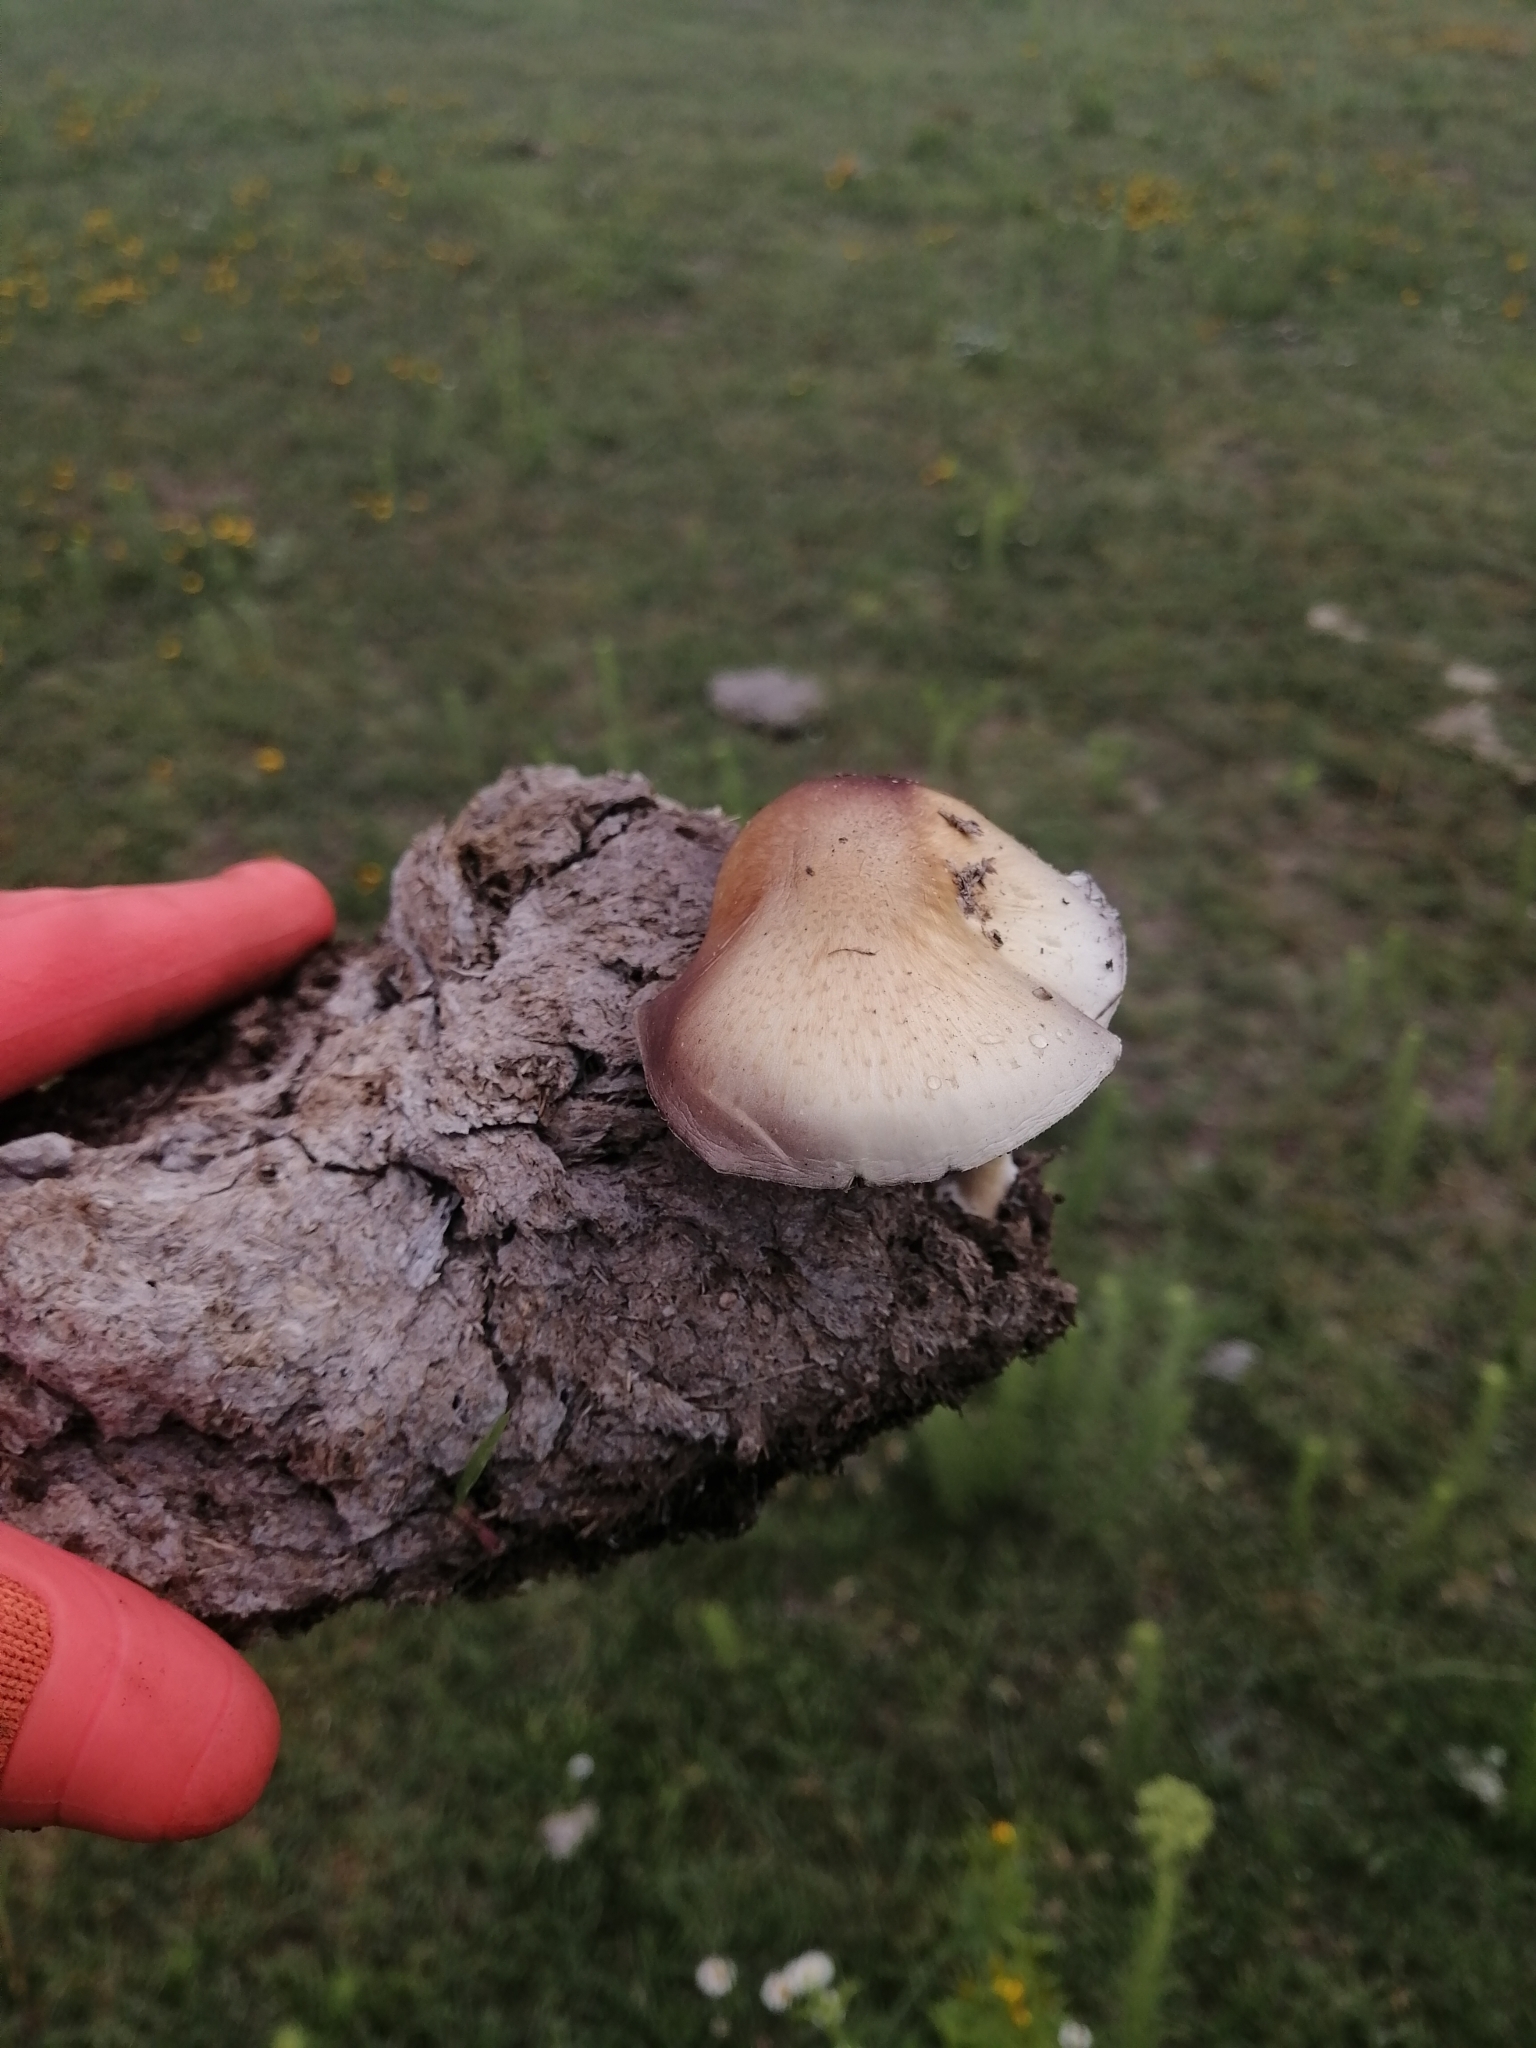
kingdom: Fungi
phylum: Basidiomycota
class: Agaricomycetes
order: Agaricales
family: Hymenogastraceae
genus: Psilocybe
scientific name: Psilocybe cubensis
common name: Golden brownie
